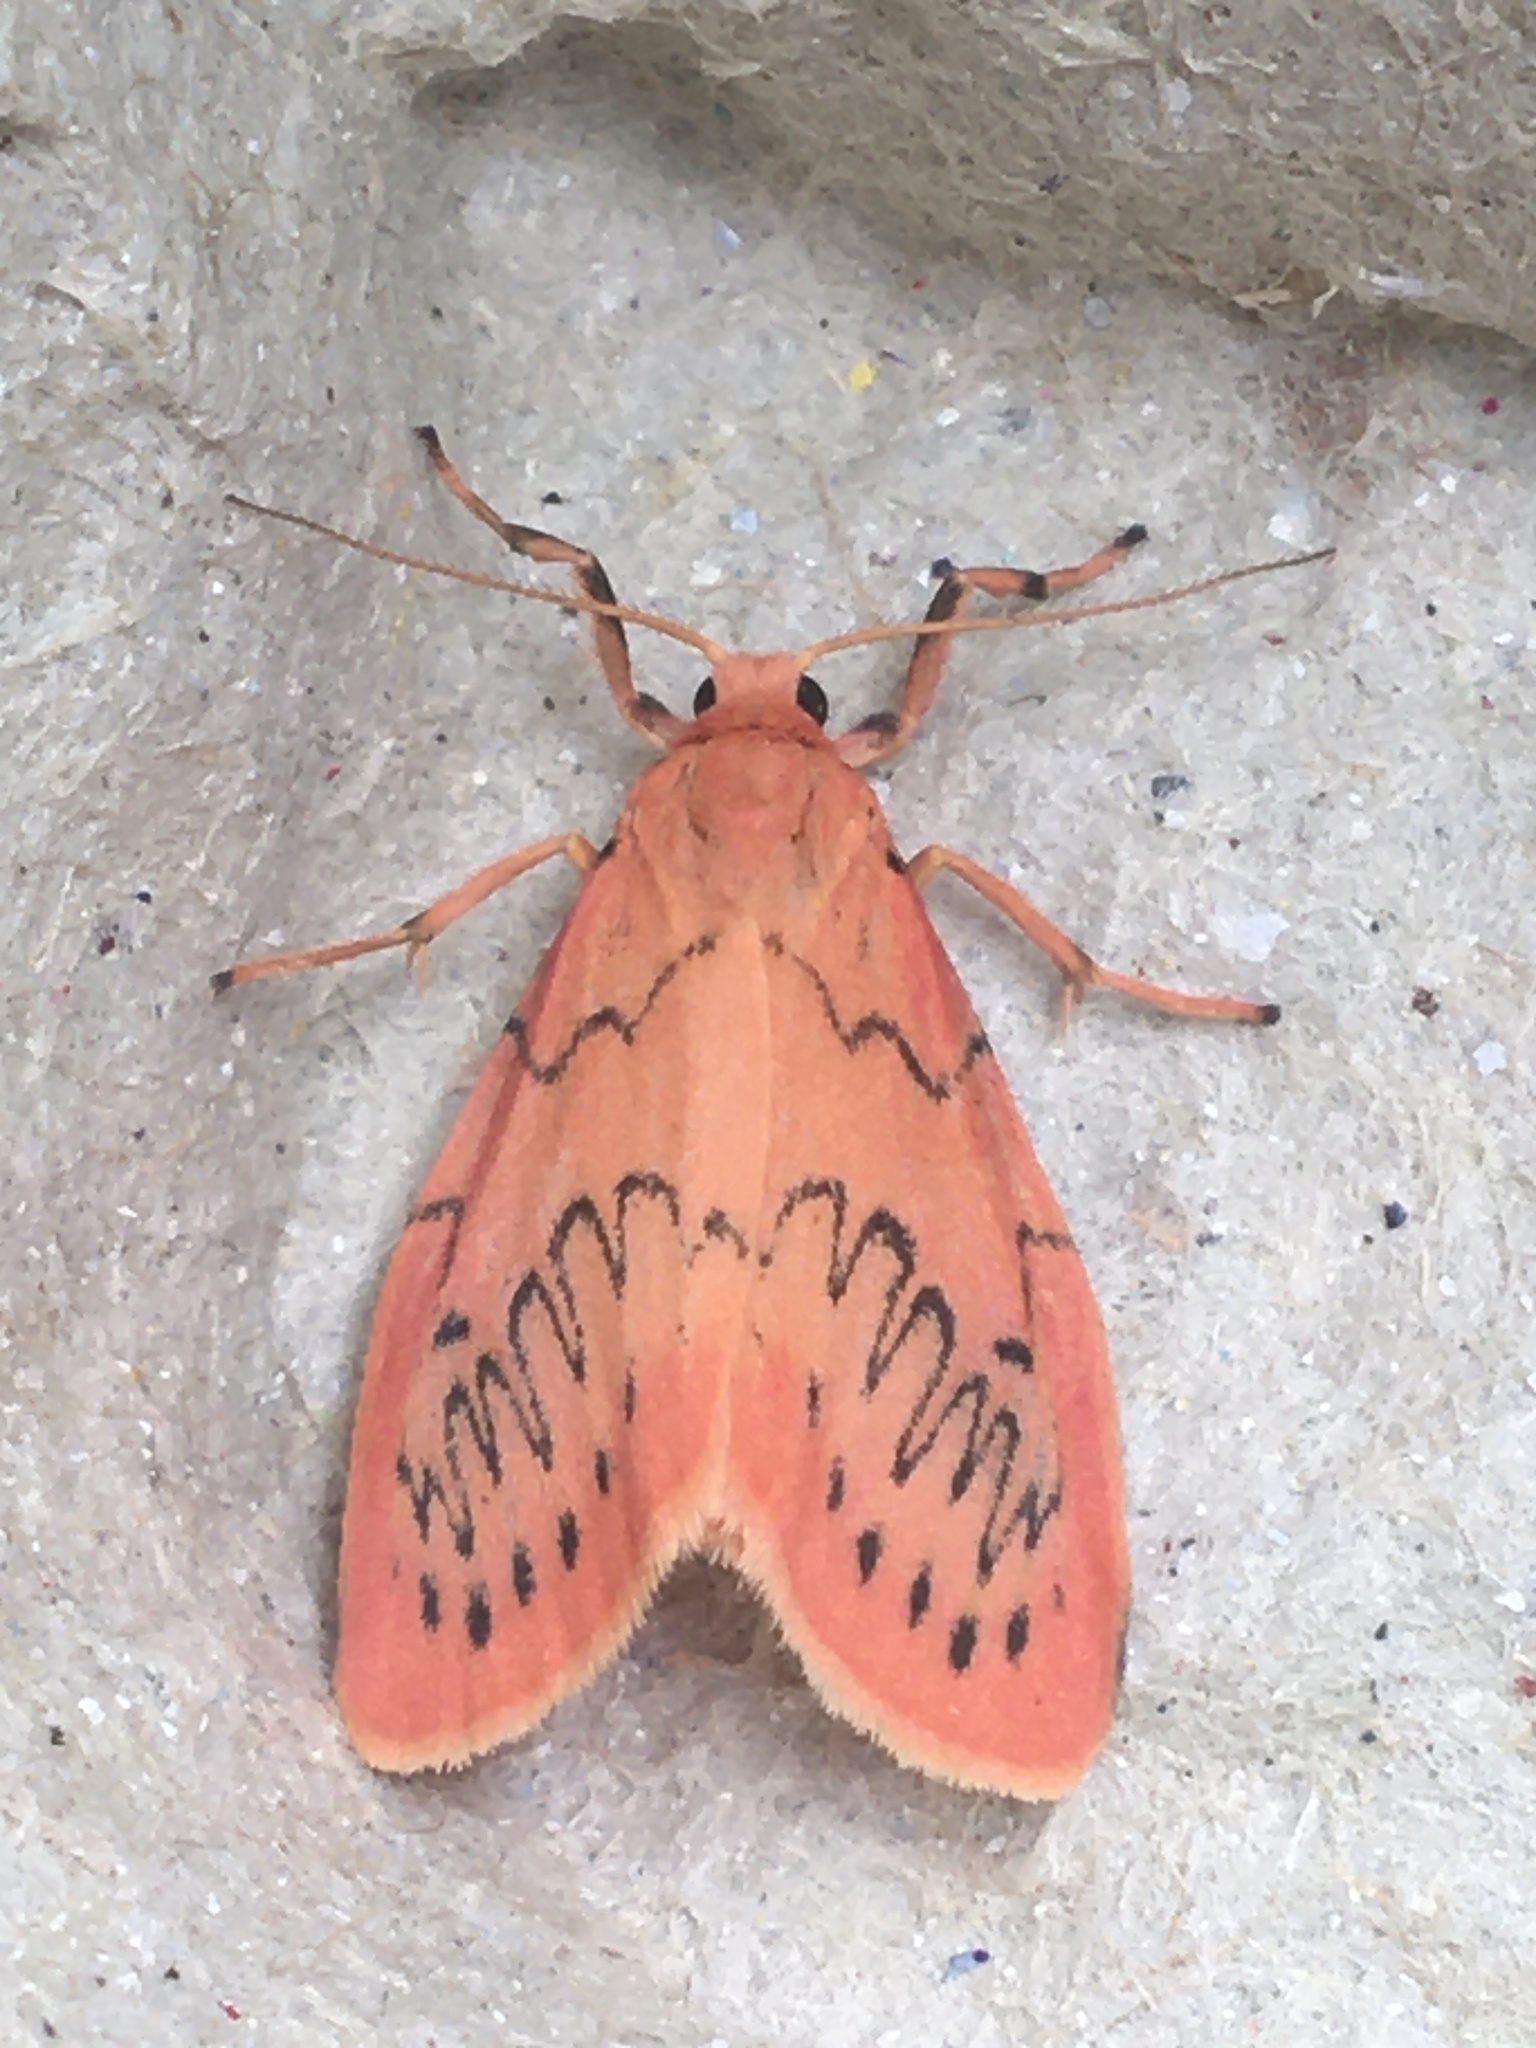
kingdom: Animalia
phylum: Arthropoda
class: Insecta
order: Lepidoptera
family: Erebidae
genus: Miltochrista
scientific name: Miltochrista miniata
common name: Rosy footman
